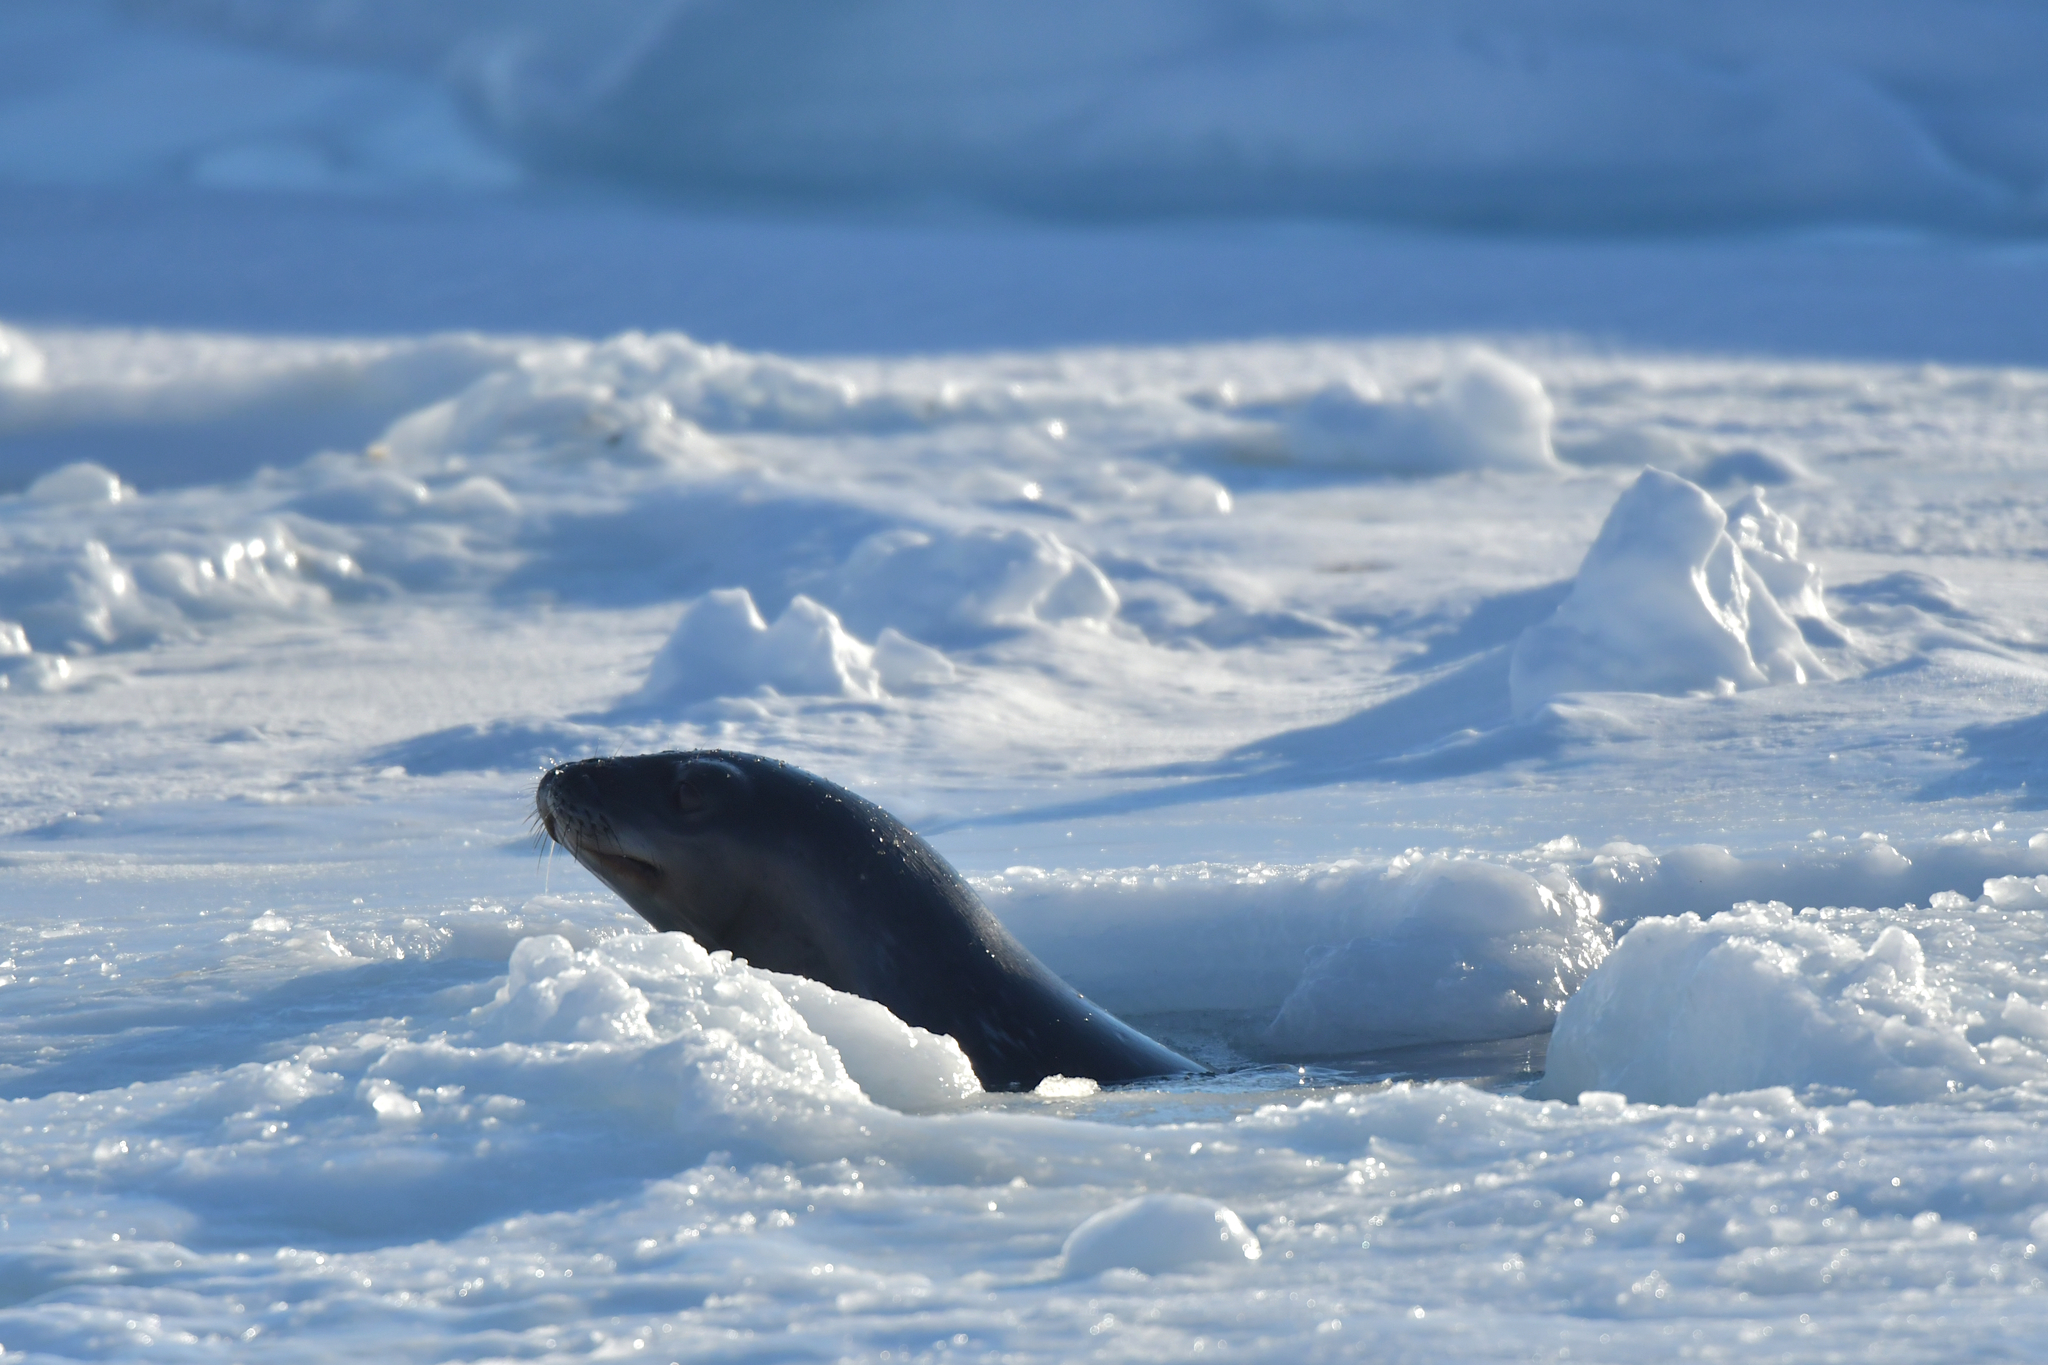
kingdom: Animalia
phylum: Chordata
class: Mammalia
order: Carnivora
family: Phocidae
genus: Leptonychotes
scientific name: Leptonychotes weddellii
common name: Weddell seal
